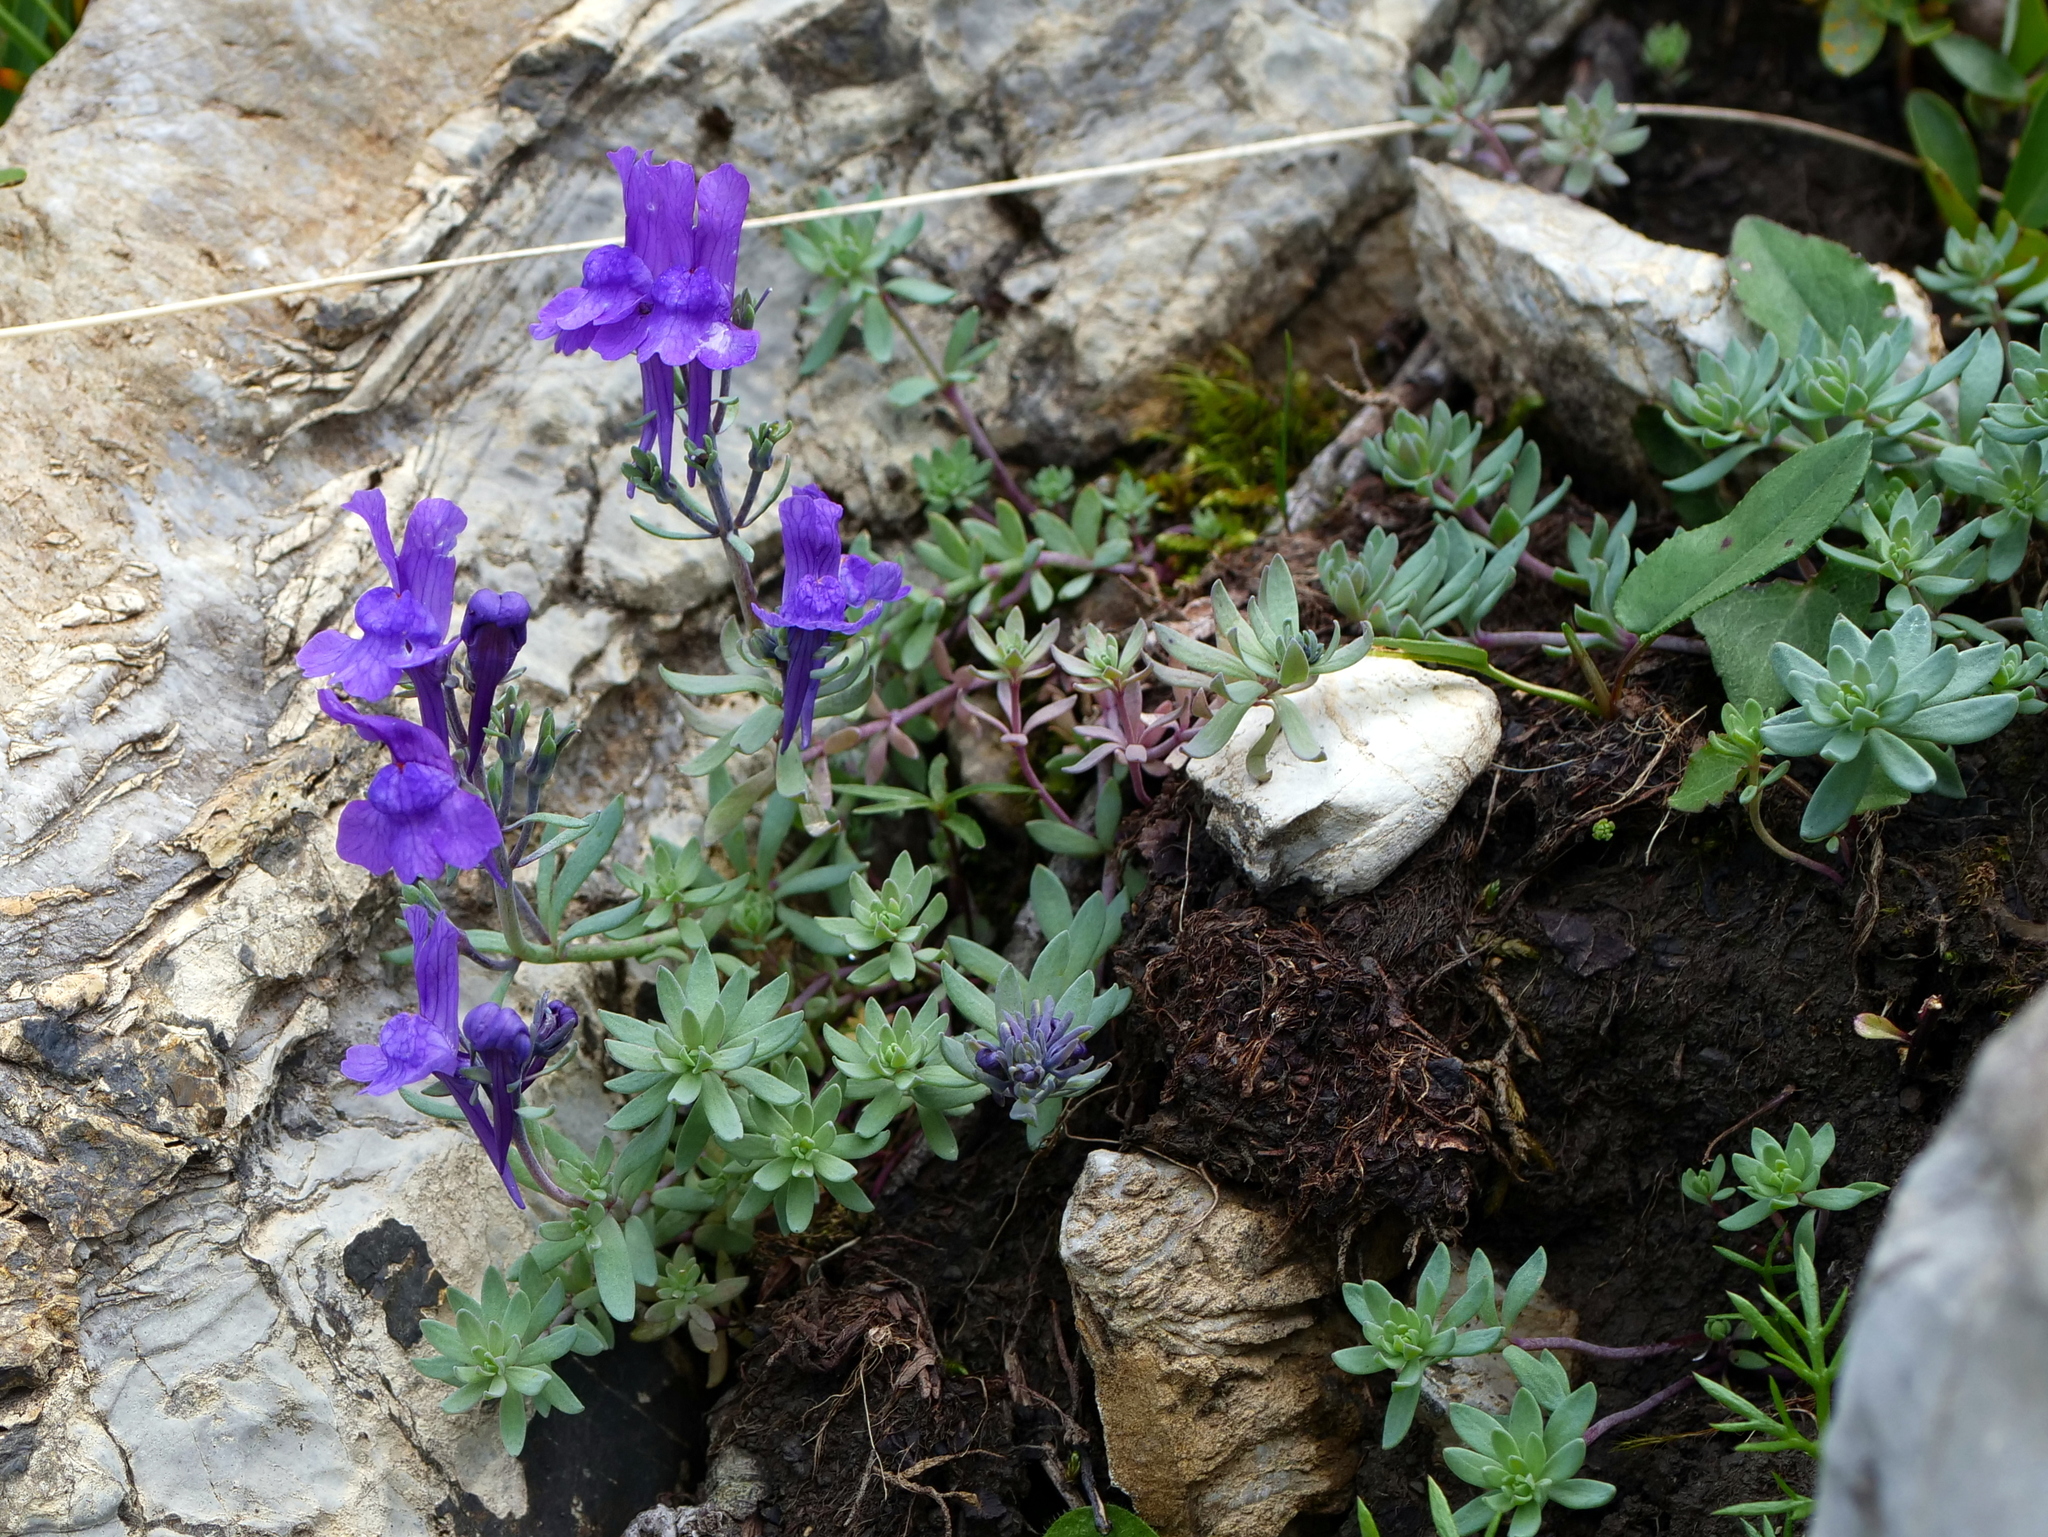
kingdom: Plantae
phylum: Tracheophyta
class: Magnoliopsida
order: Lamiales
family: Plantaginaceae
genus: Linaria
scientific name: Linaria alpina
